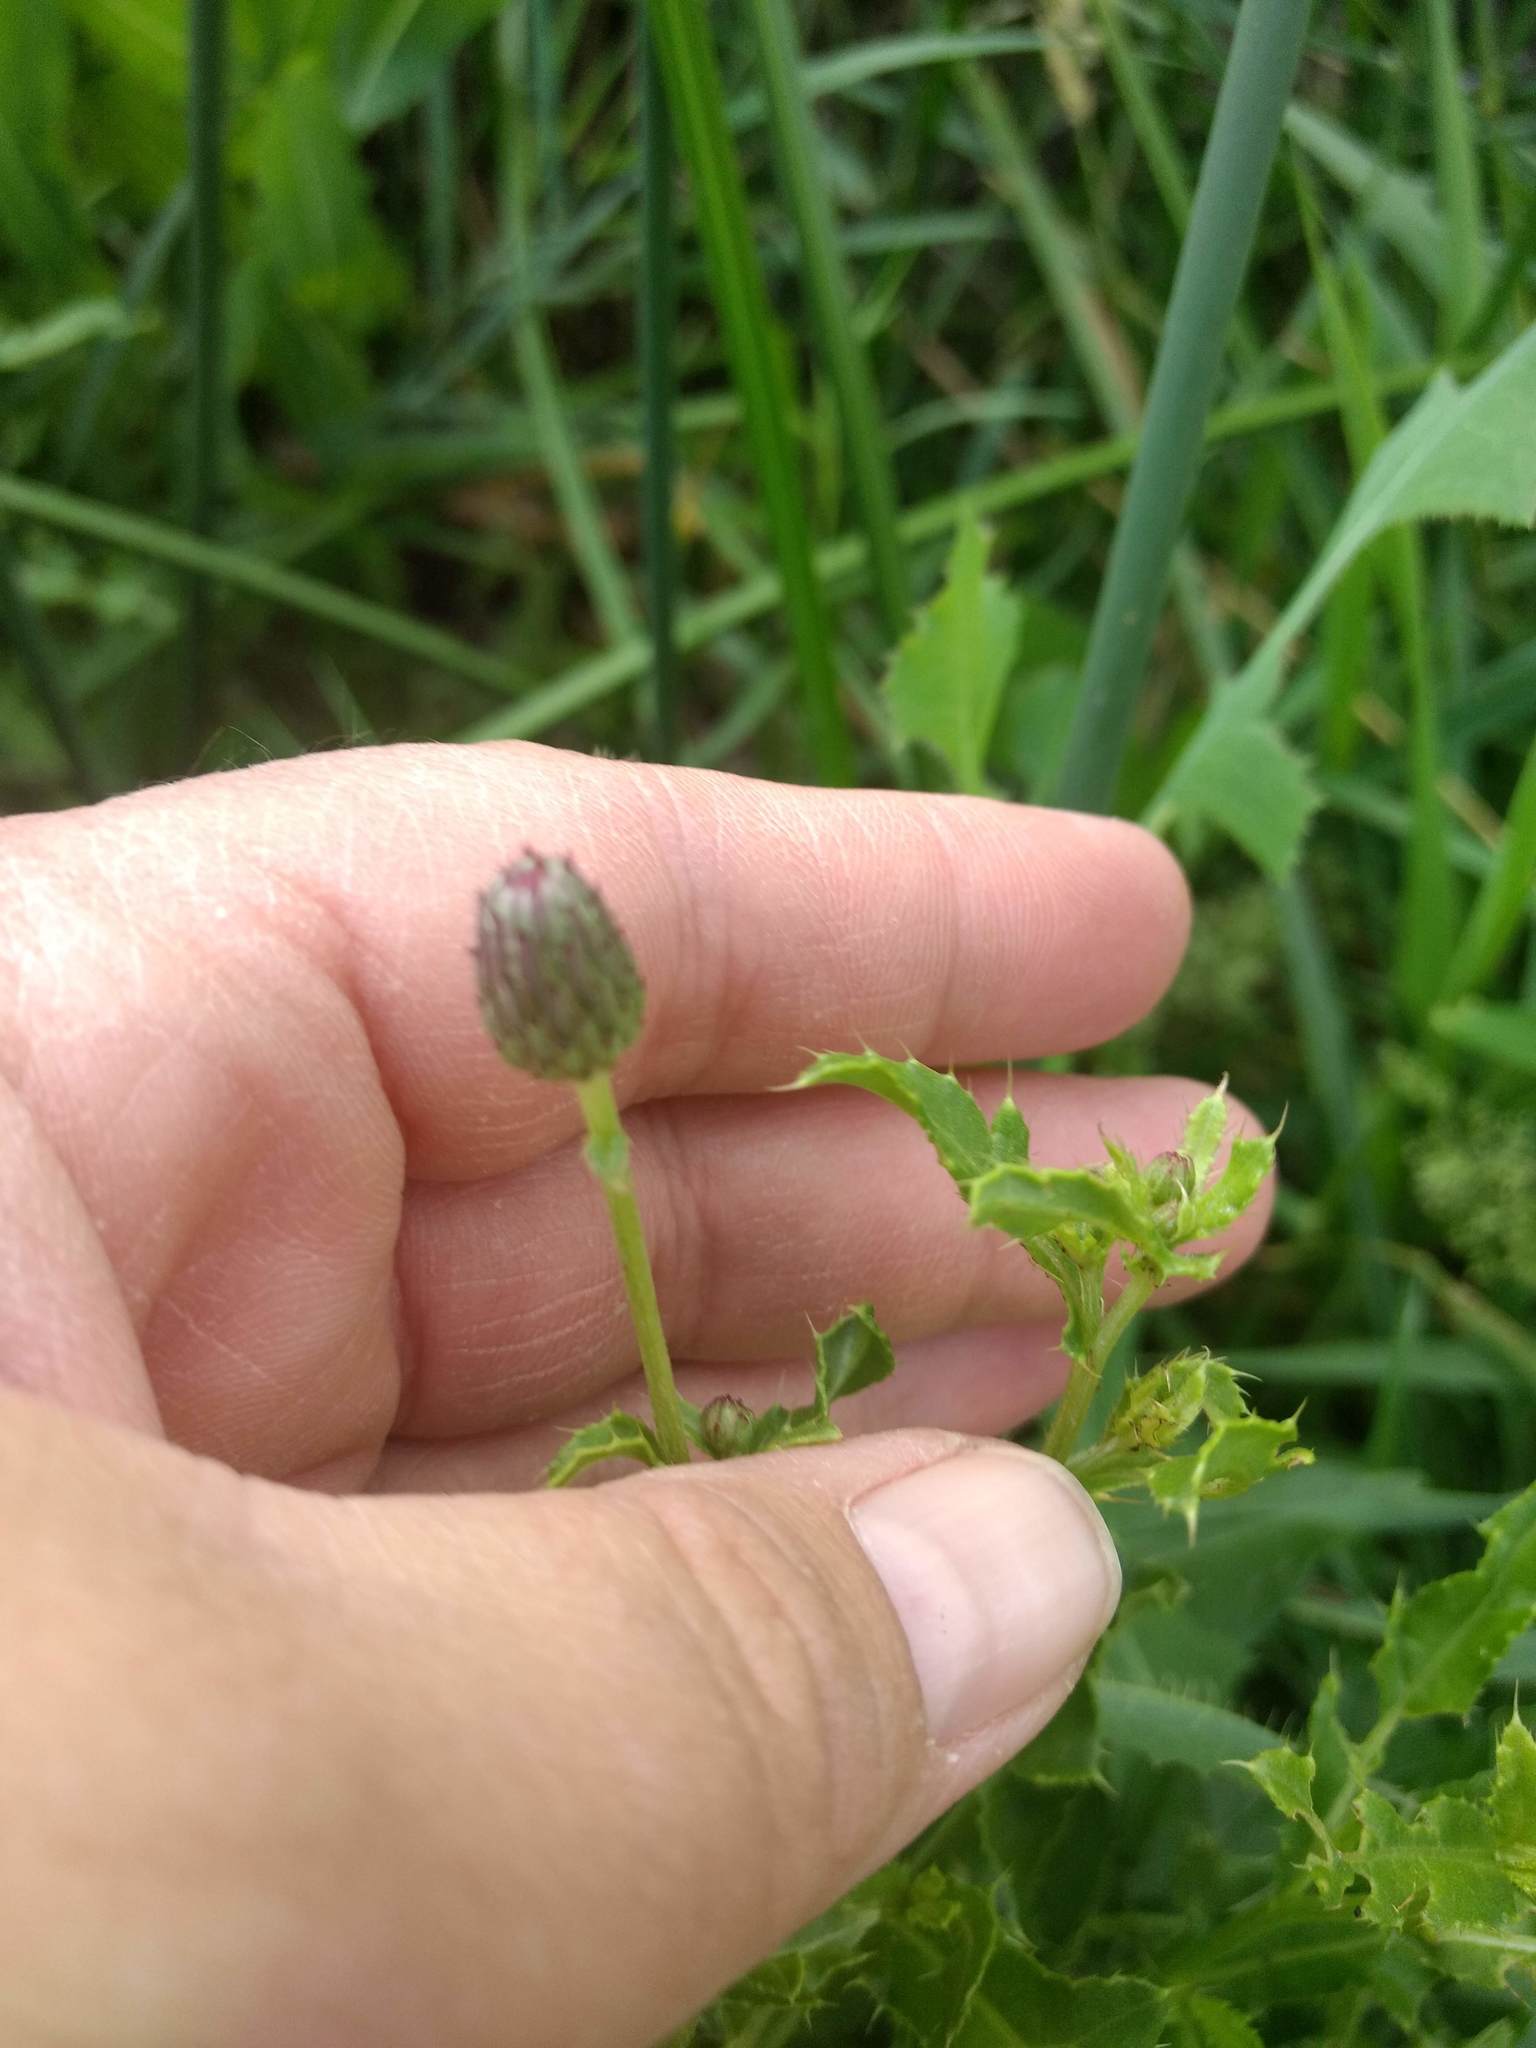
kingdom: Plantae
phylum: Tracheophyta
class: Magnoliopsida
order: Asterales
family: Asteraceae
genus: Cirsium
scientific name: Cirsium arvense
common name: Creeping thistle
